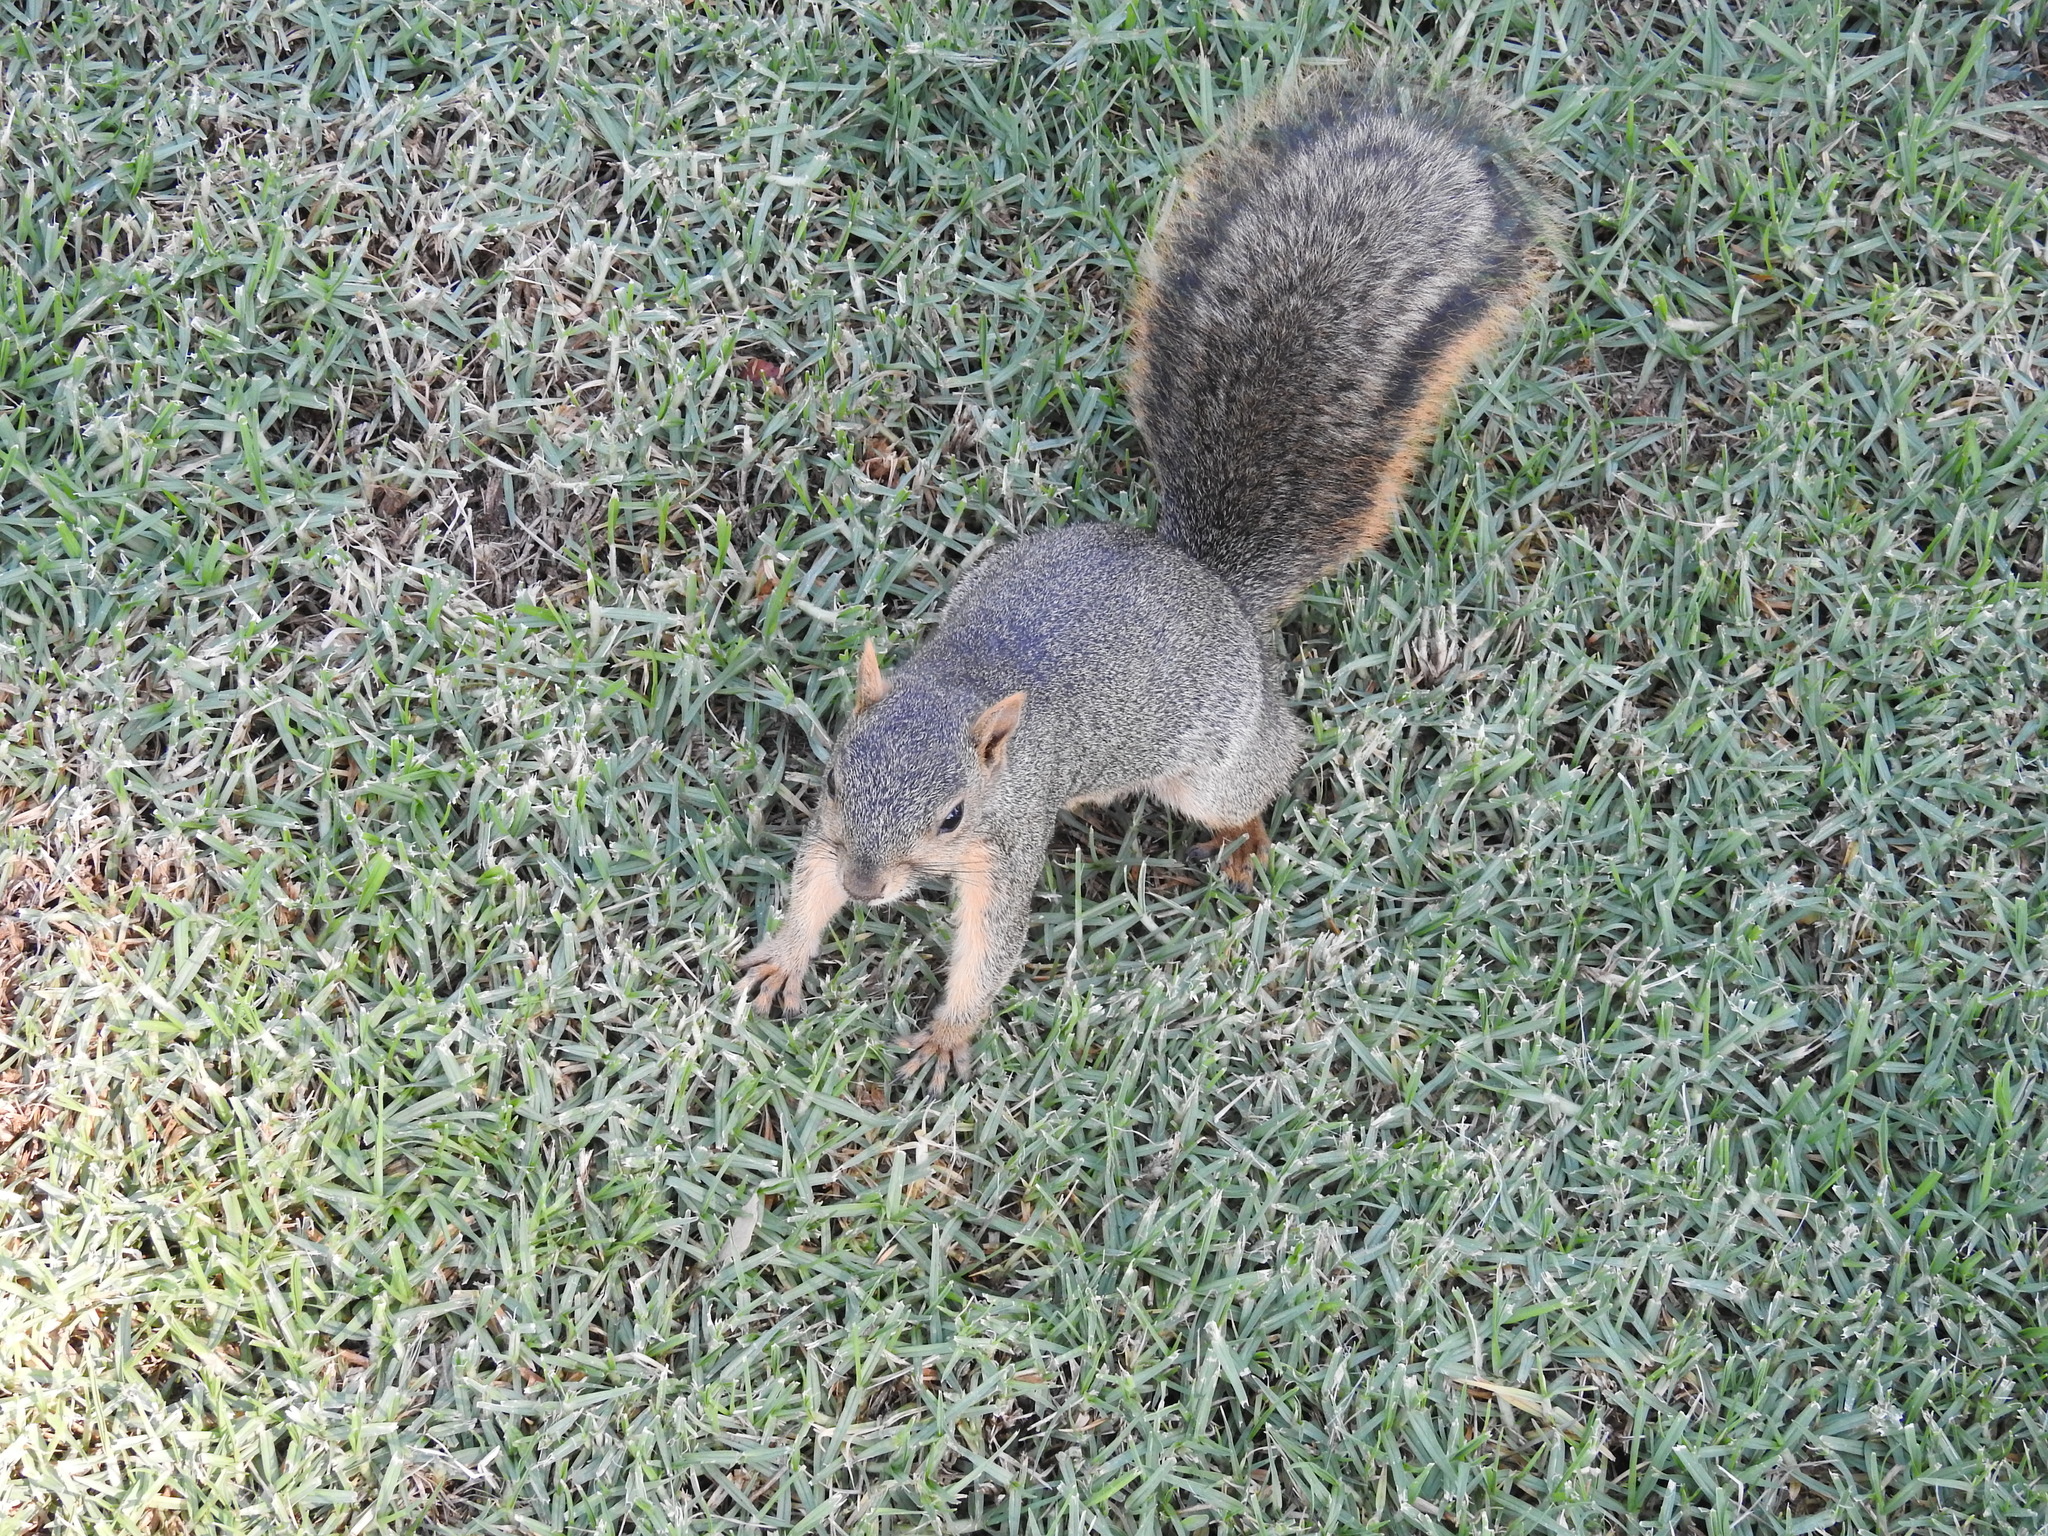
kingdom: Animalia
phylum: Chordata
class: Mammalia
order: Rodentia
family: Sciuridae
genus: Sciurus
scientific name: Sciurus niger
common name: Fox squirrel
